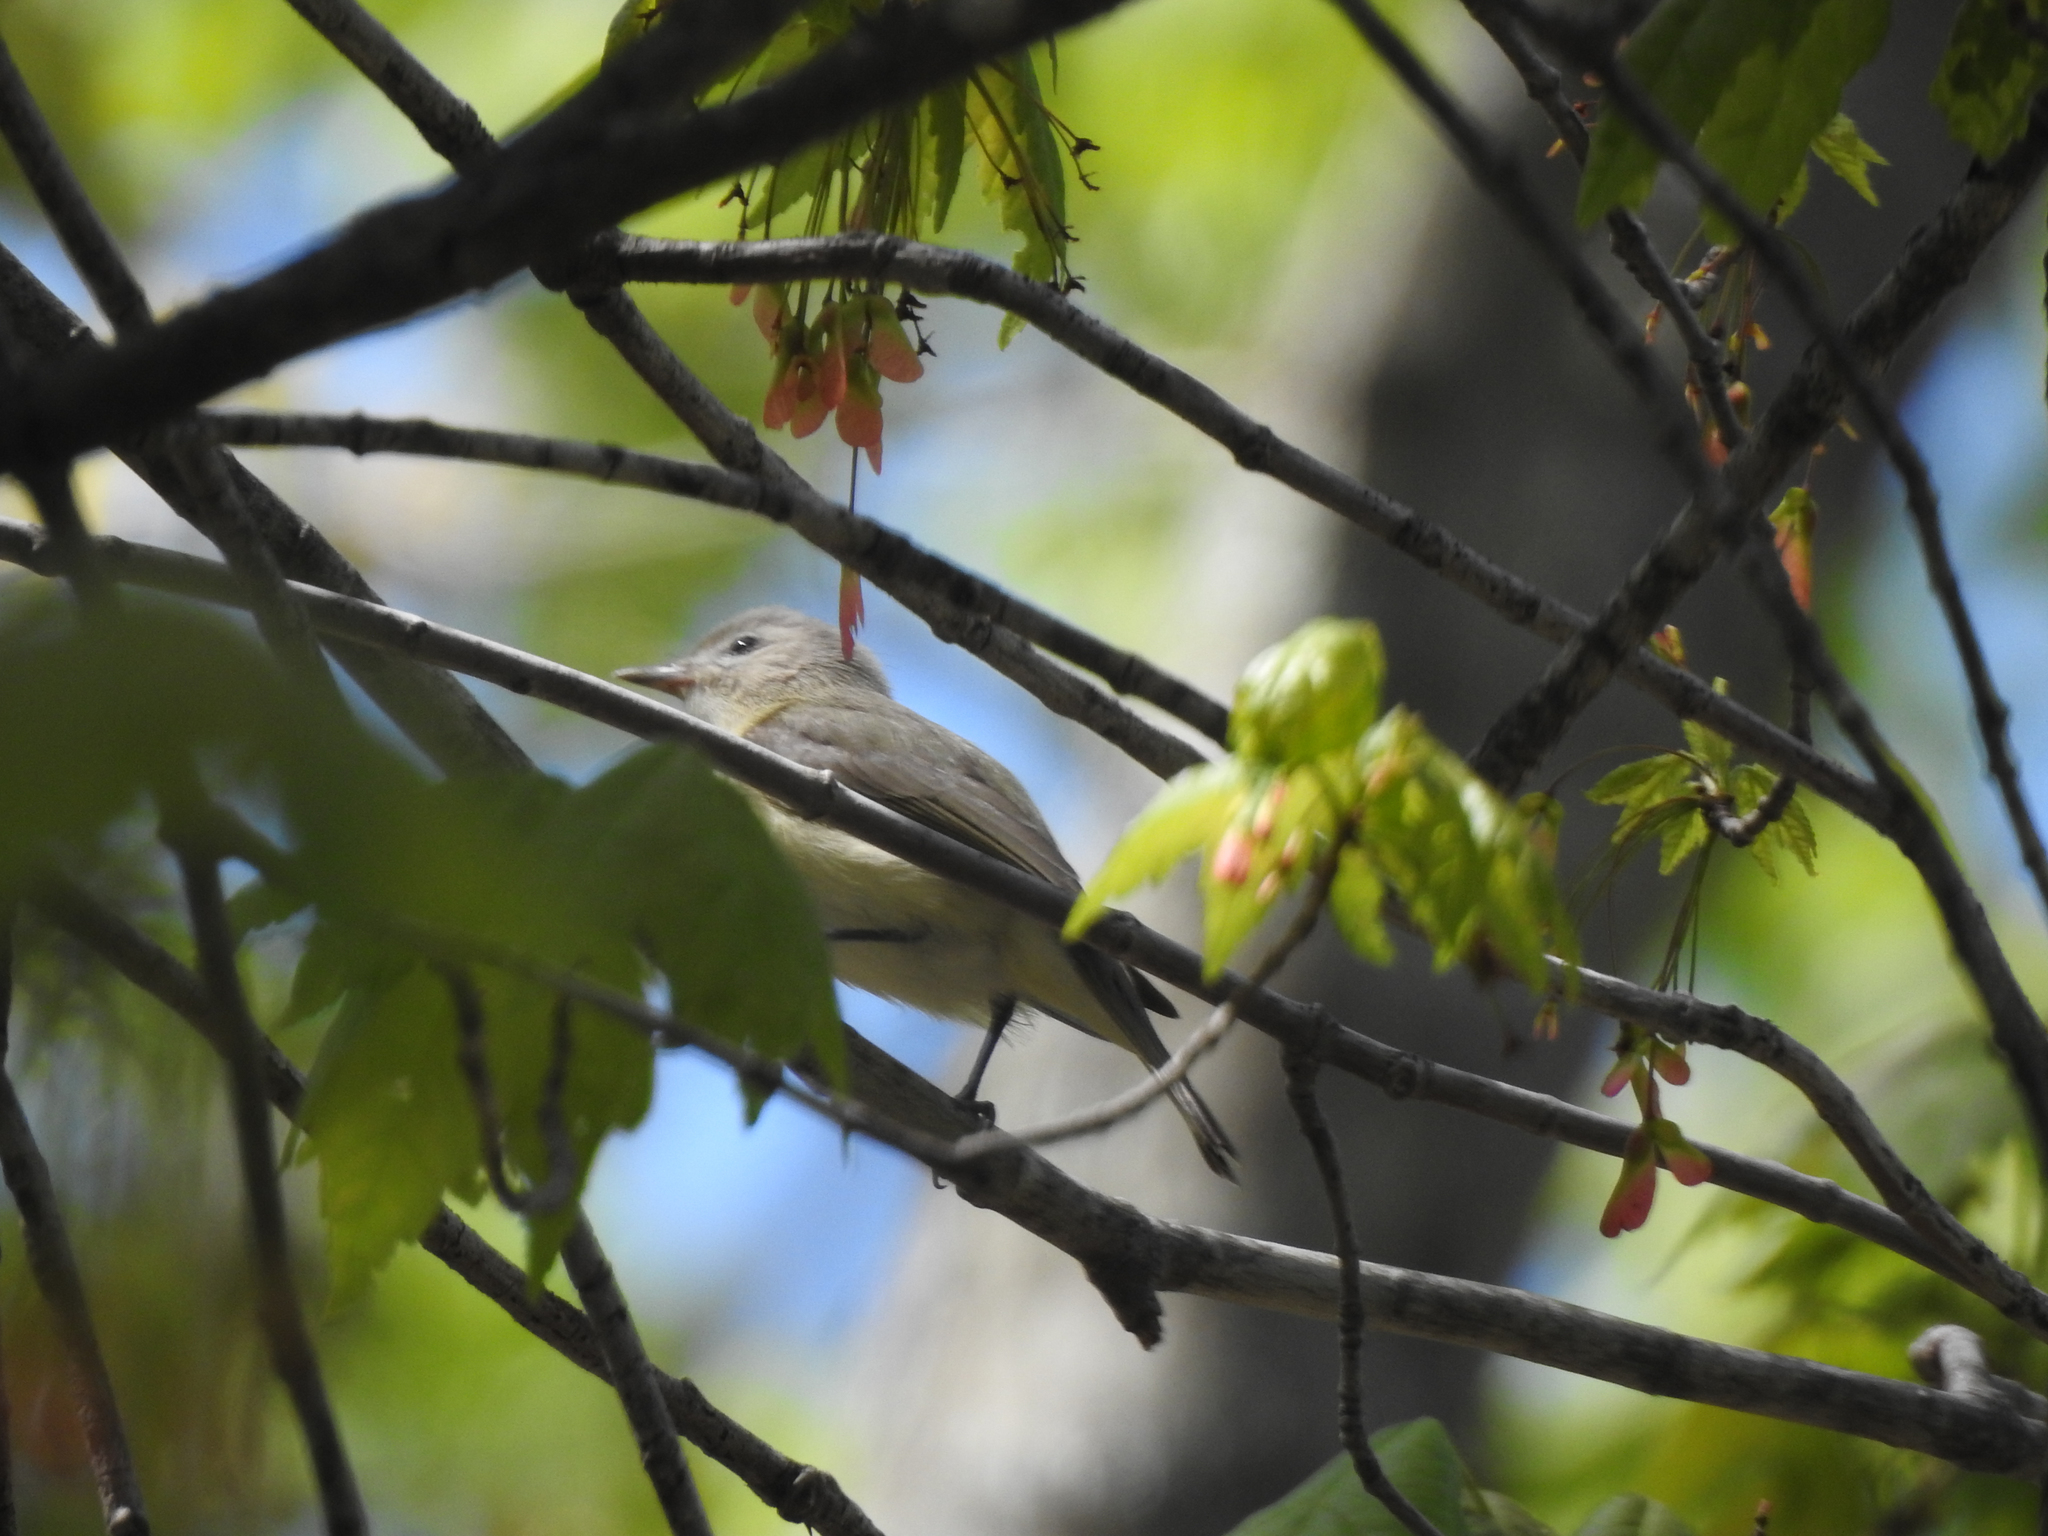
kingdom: Animalia
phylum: Chordata
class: Aves
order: Passeriformes
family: Vireonidae
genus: Vireo
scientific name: Vireo gilvus
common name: Warbling vireo
